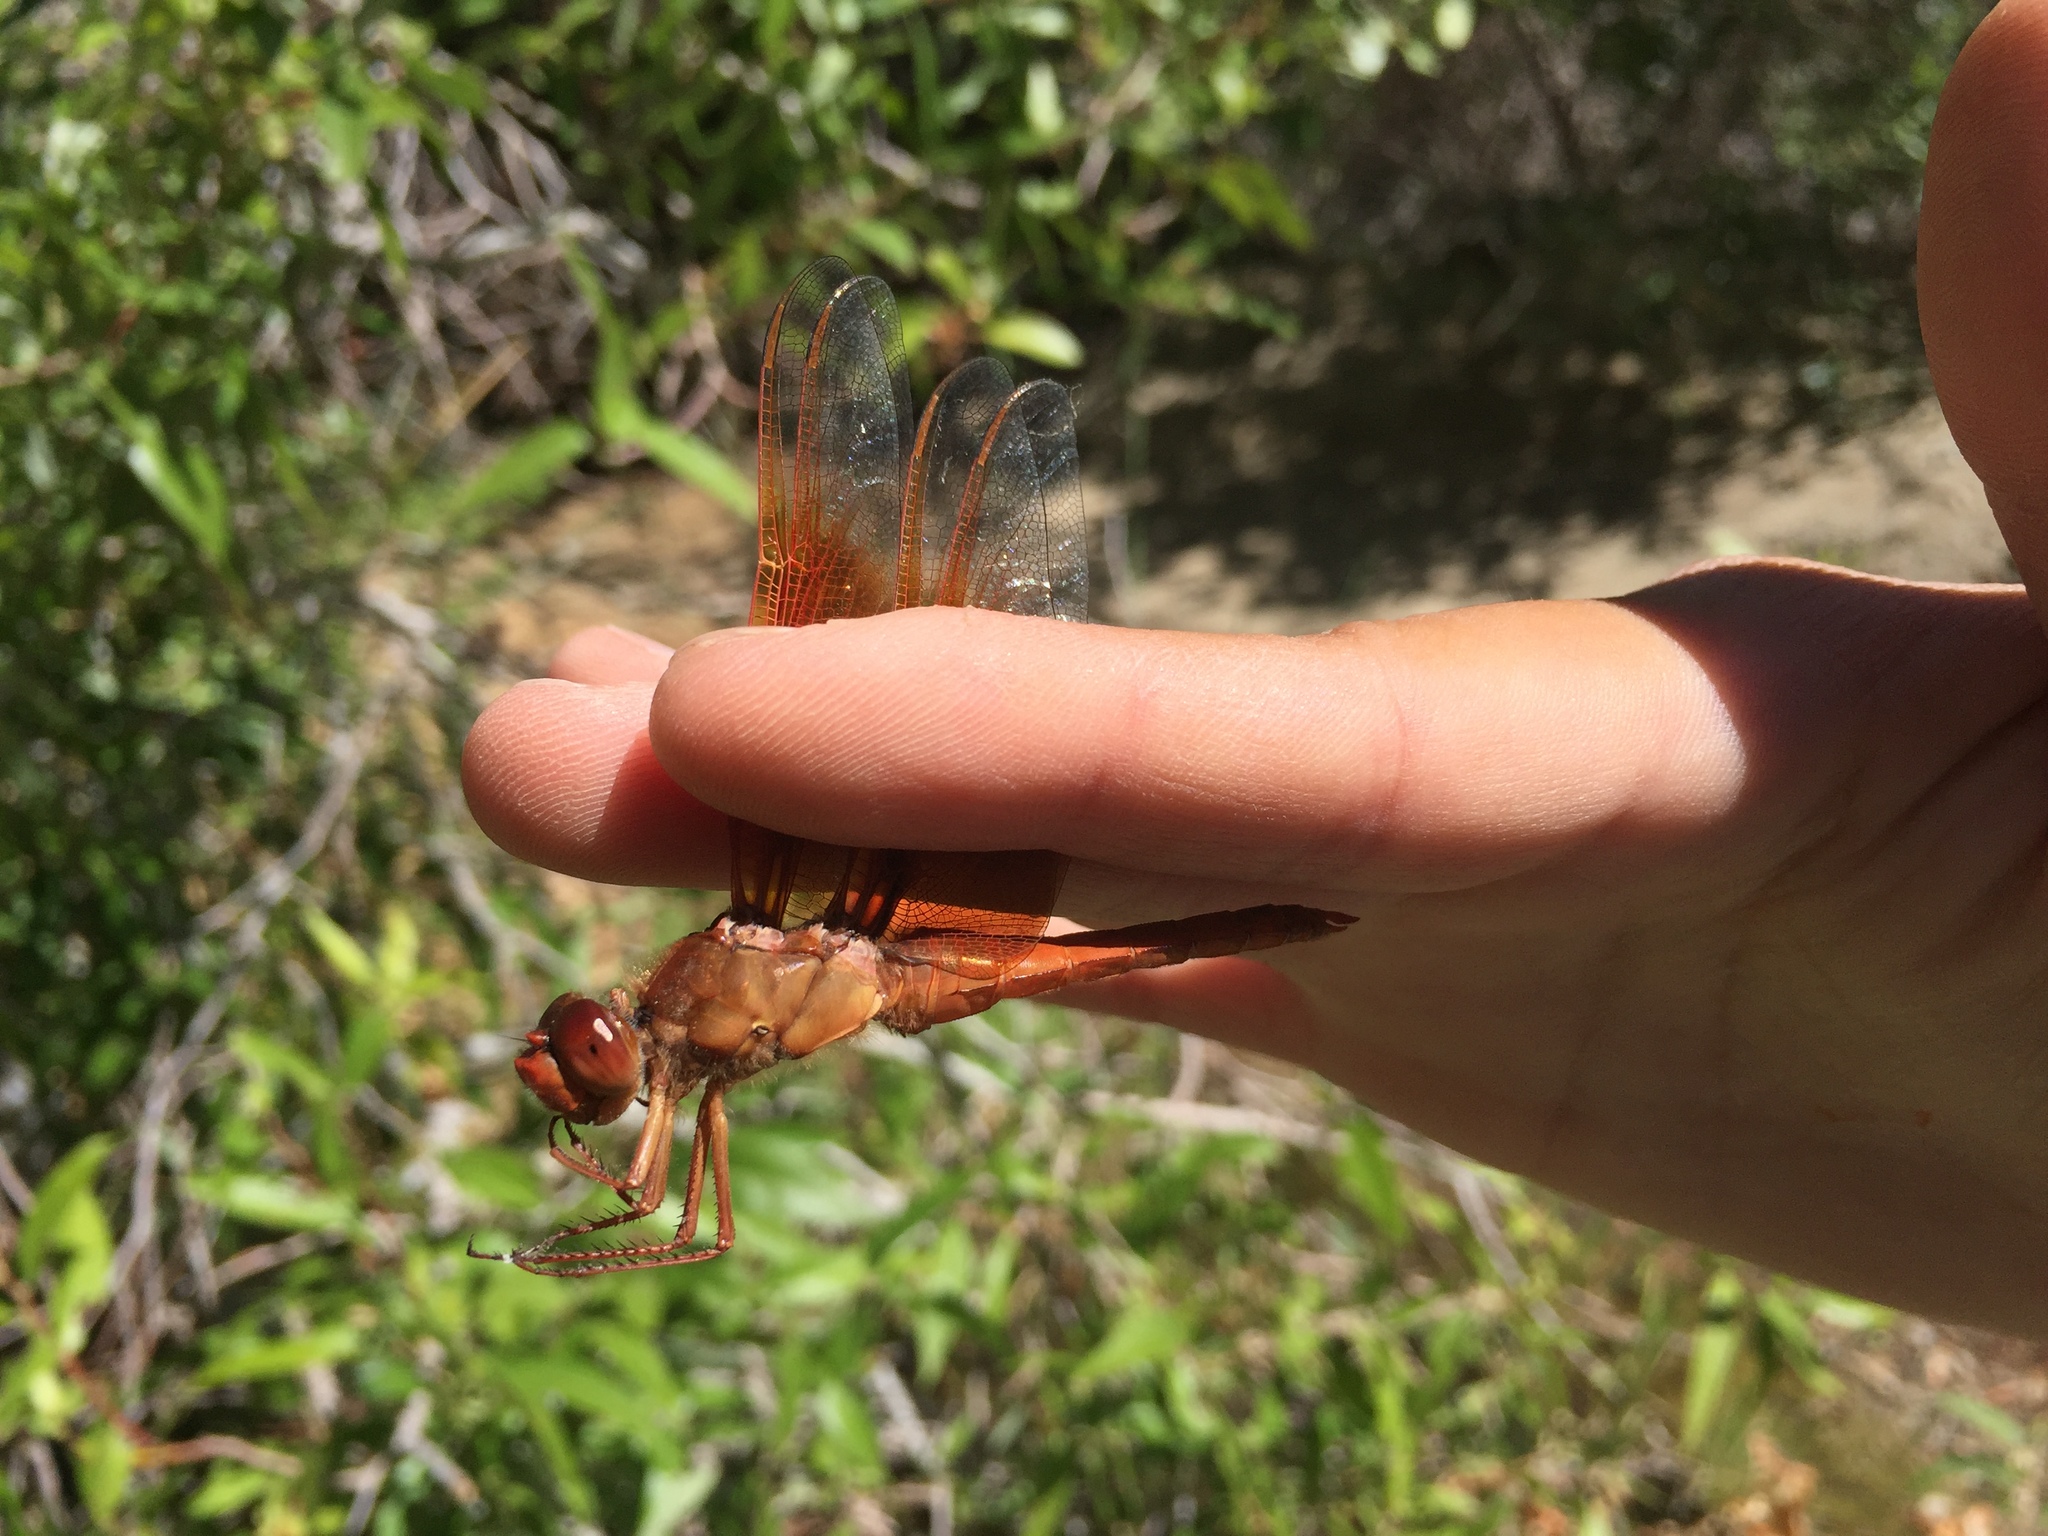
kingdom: Animalia
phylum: Arthropoda
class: Insecta
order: Odonata
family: Libellulidae
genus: Libellula
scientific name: Libellula saturata
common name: Flame skimmer
